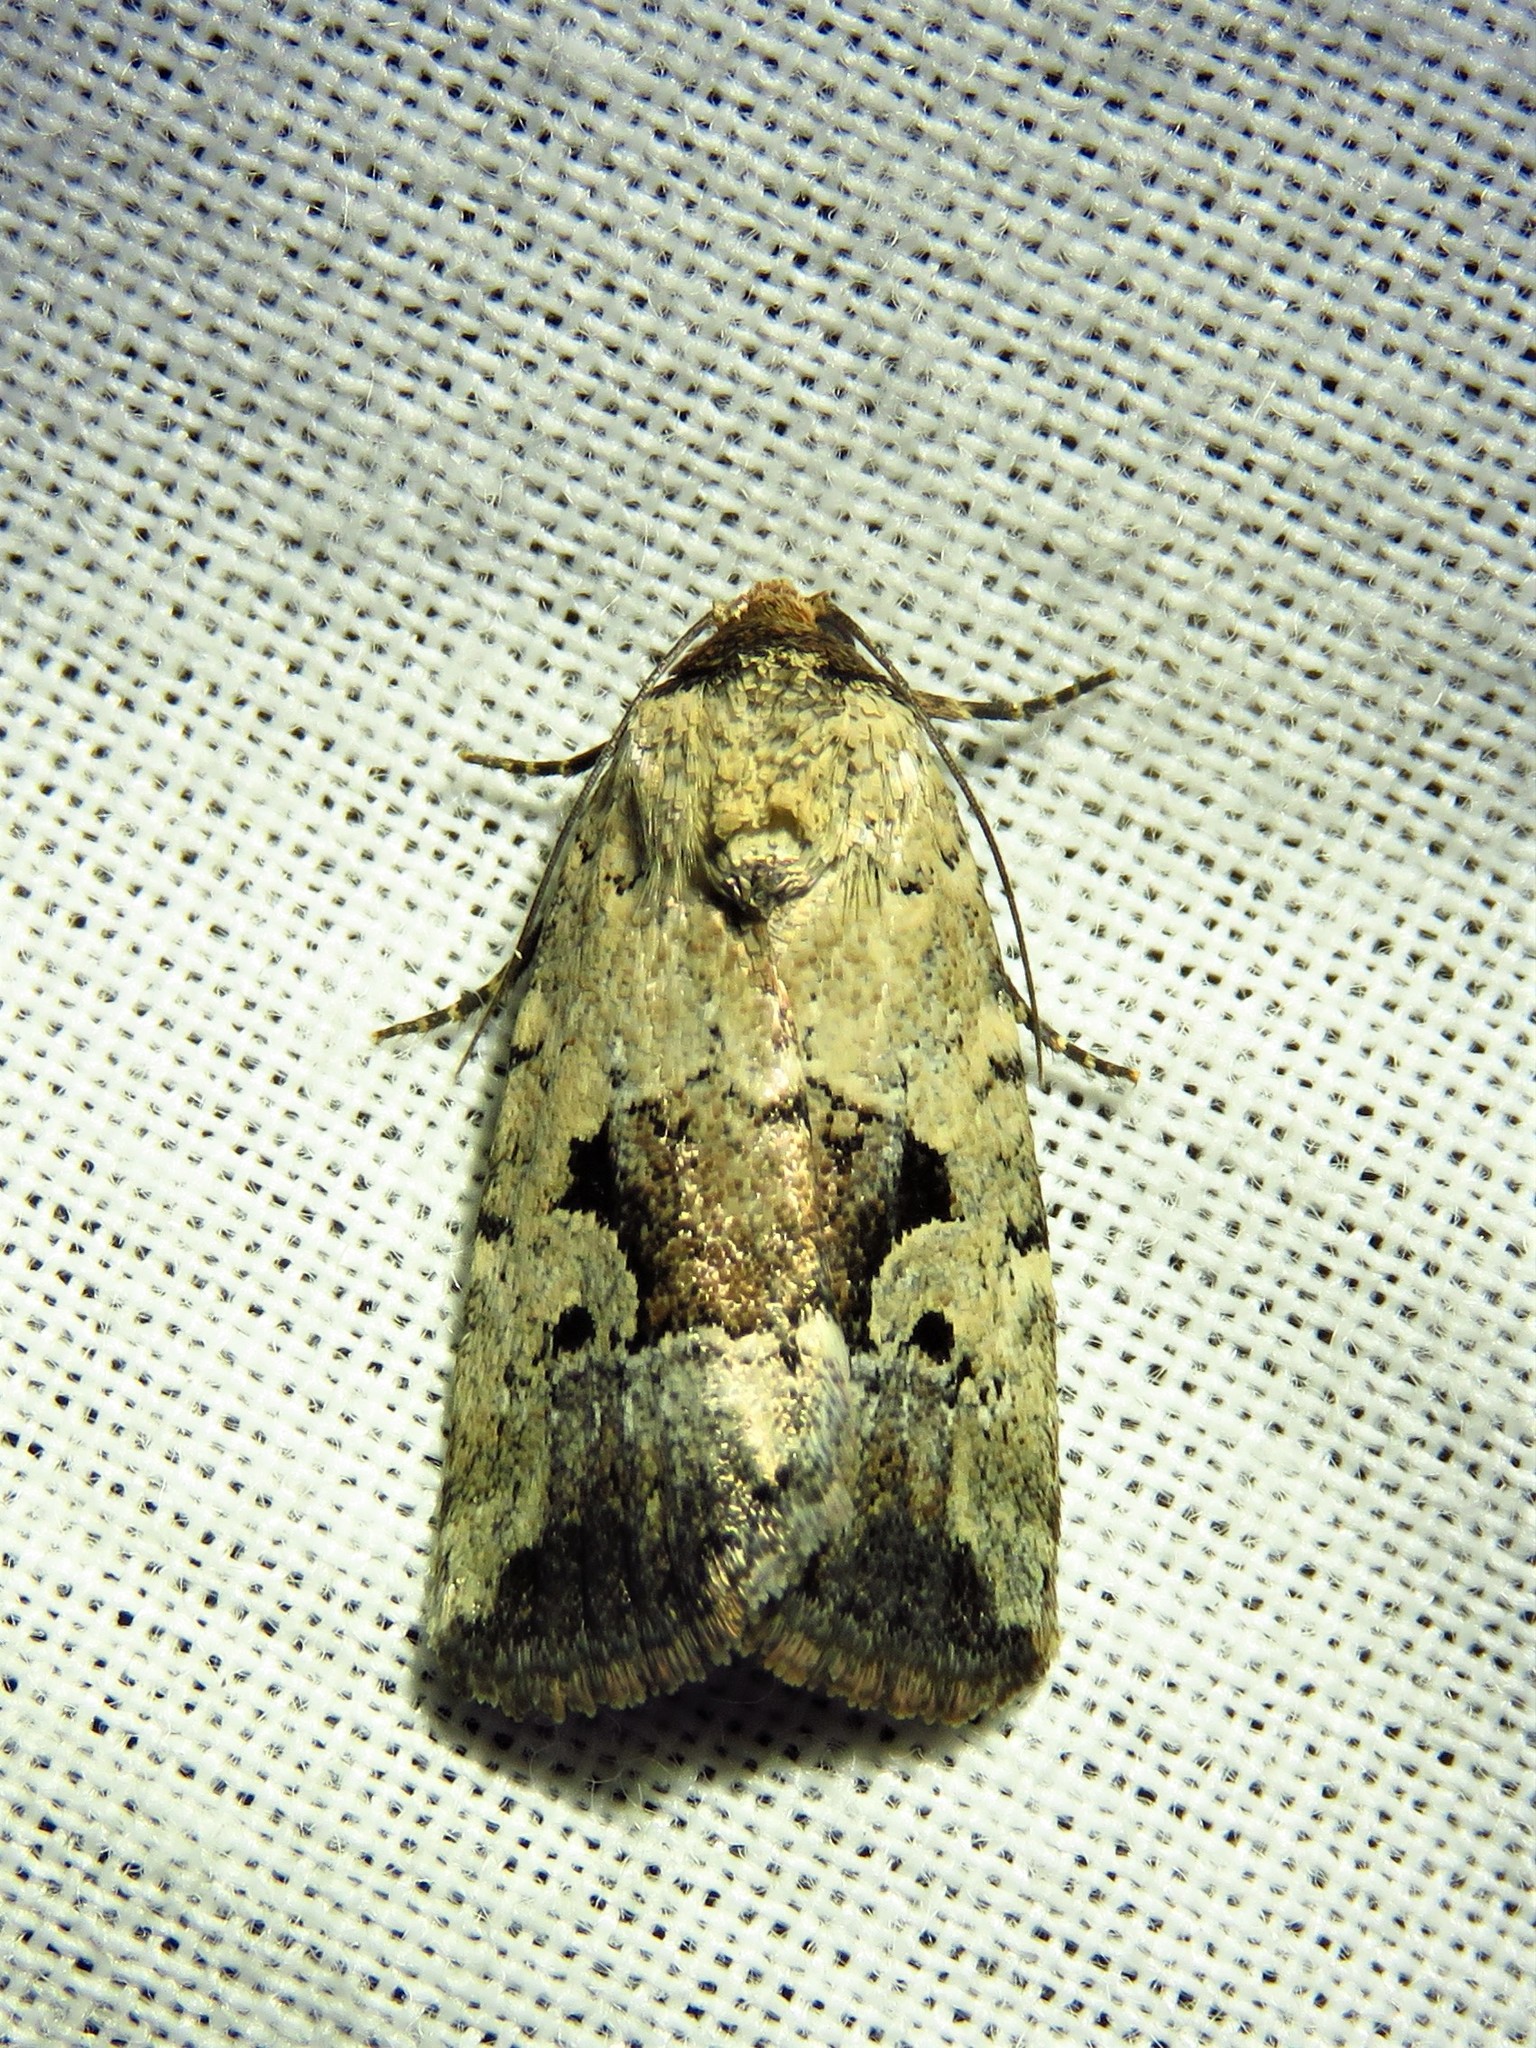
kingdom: Animalia
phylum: Arthropoda
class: Insecta
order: Lepidoptera
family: Noctuidae
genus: Elaphria
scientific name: Elaphria festivoides
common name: Festive midget
